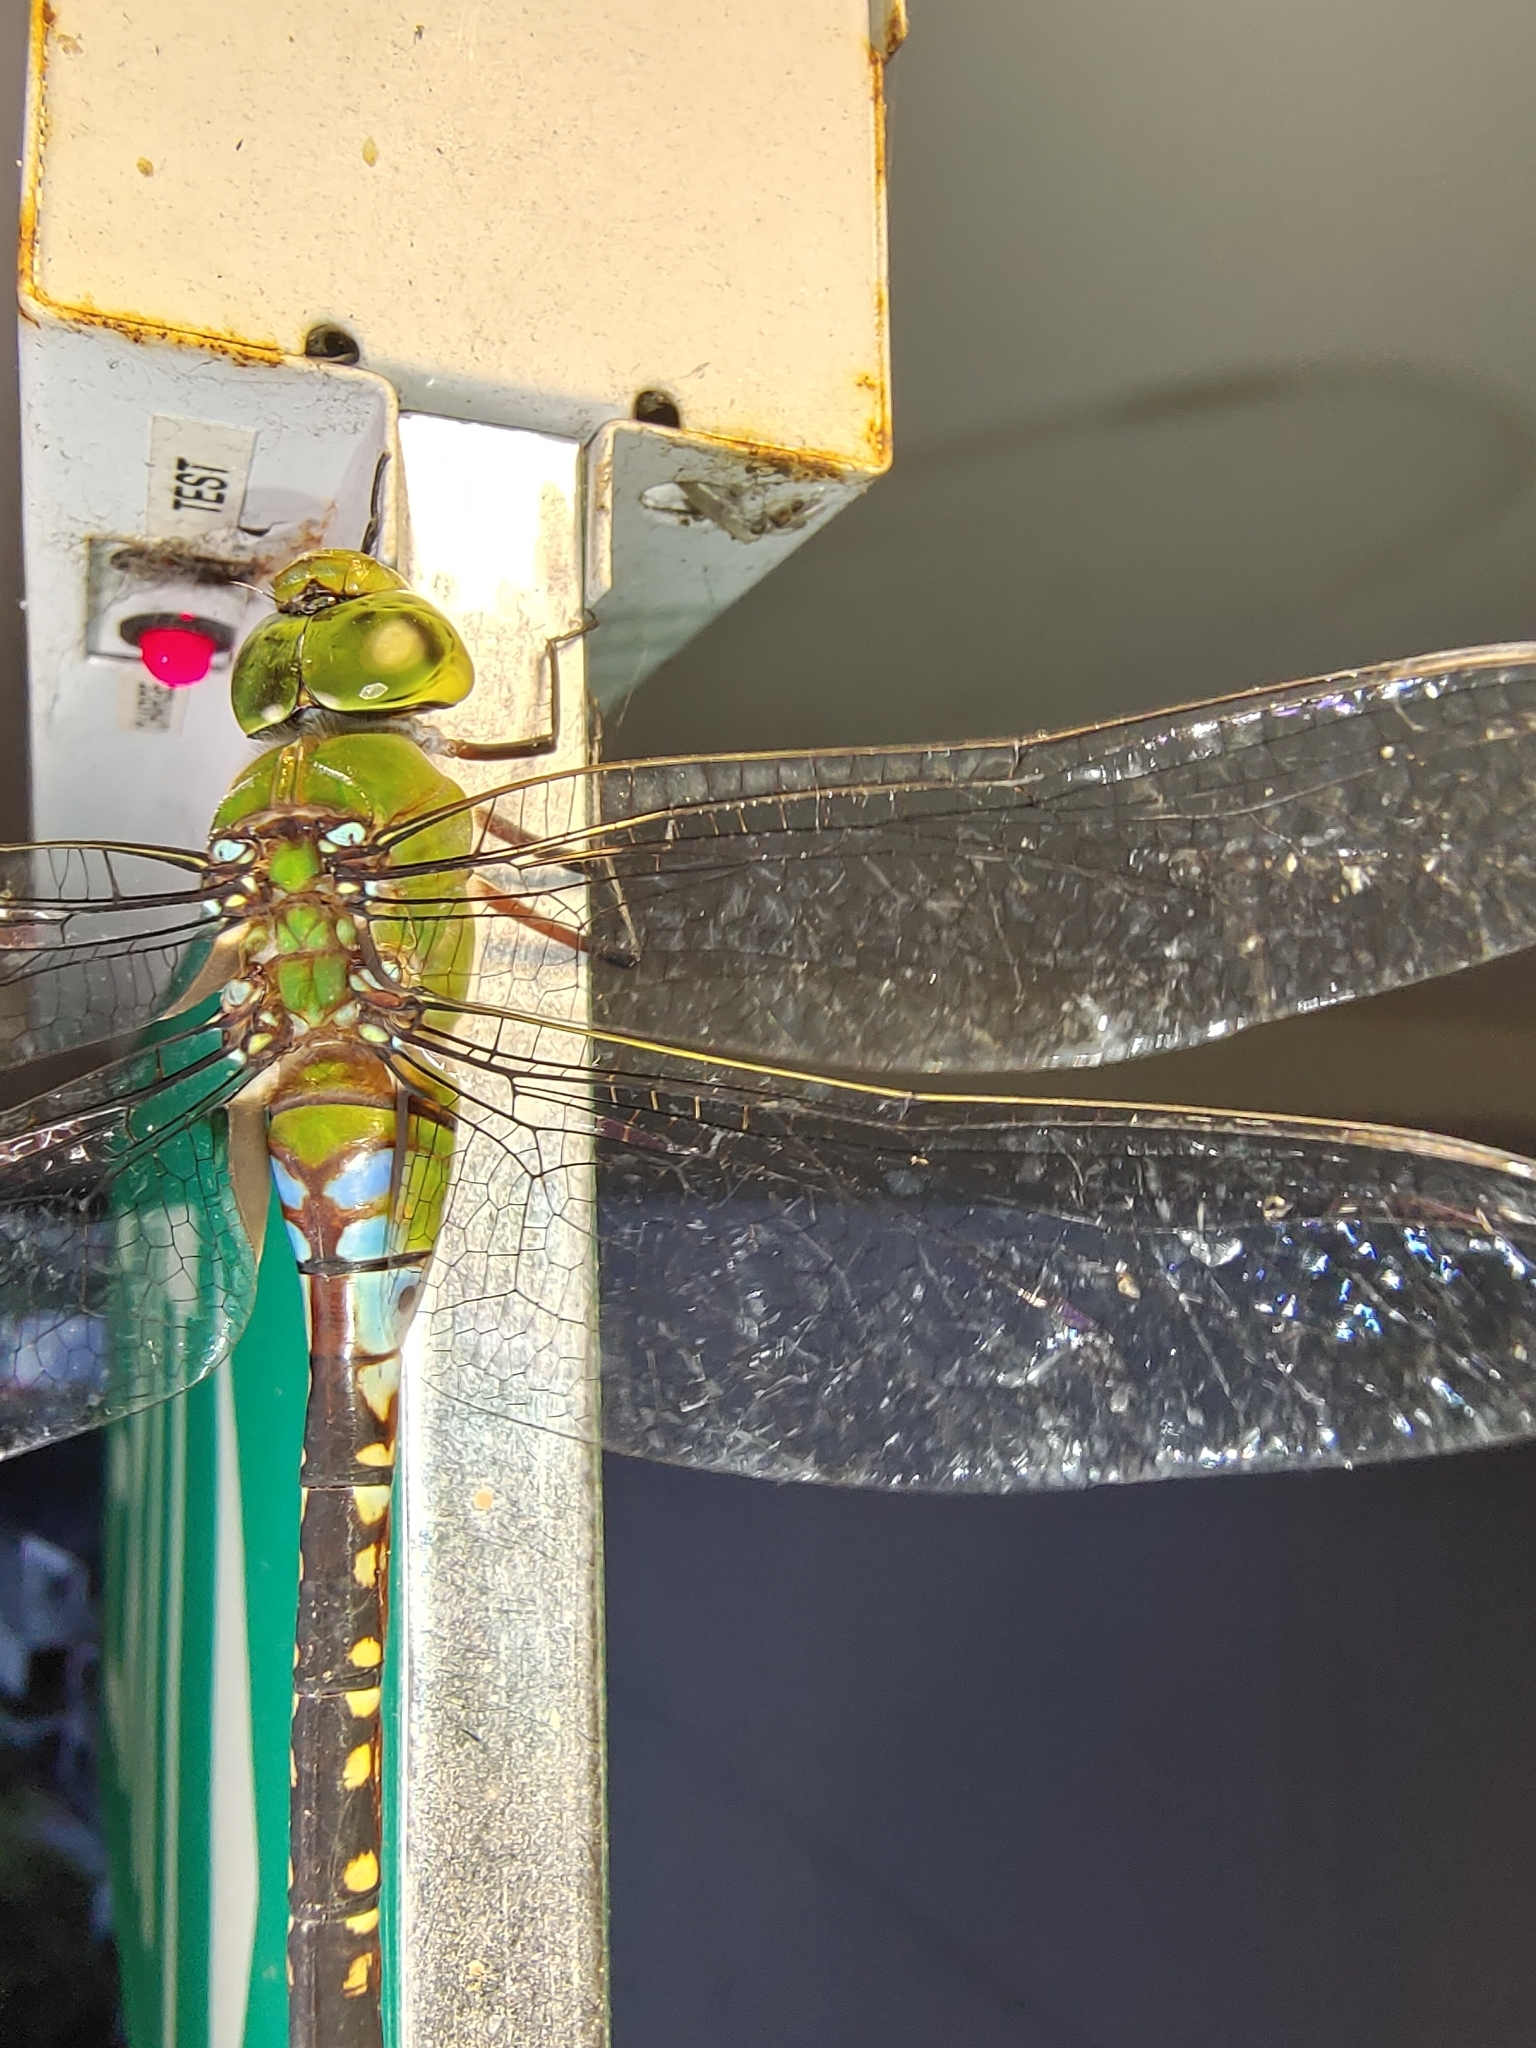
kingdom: Animalia
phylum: Arthropoda
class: Insecta
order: Odonata
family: Aeshnidae
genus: Anax
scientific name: Anax guttatus
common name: Emperor
